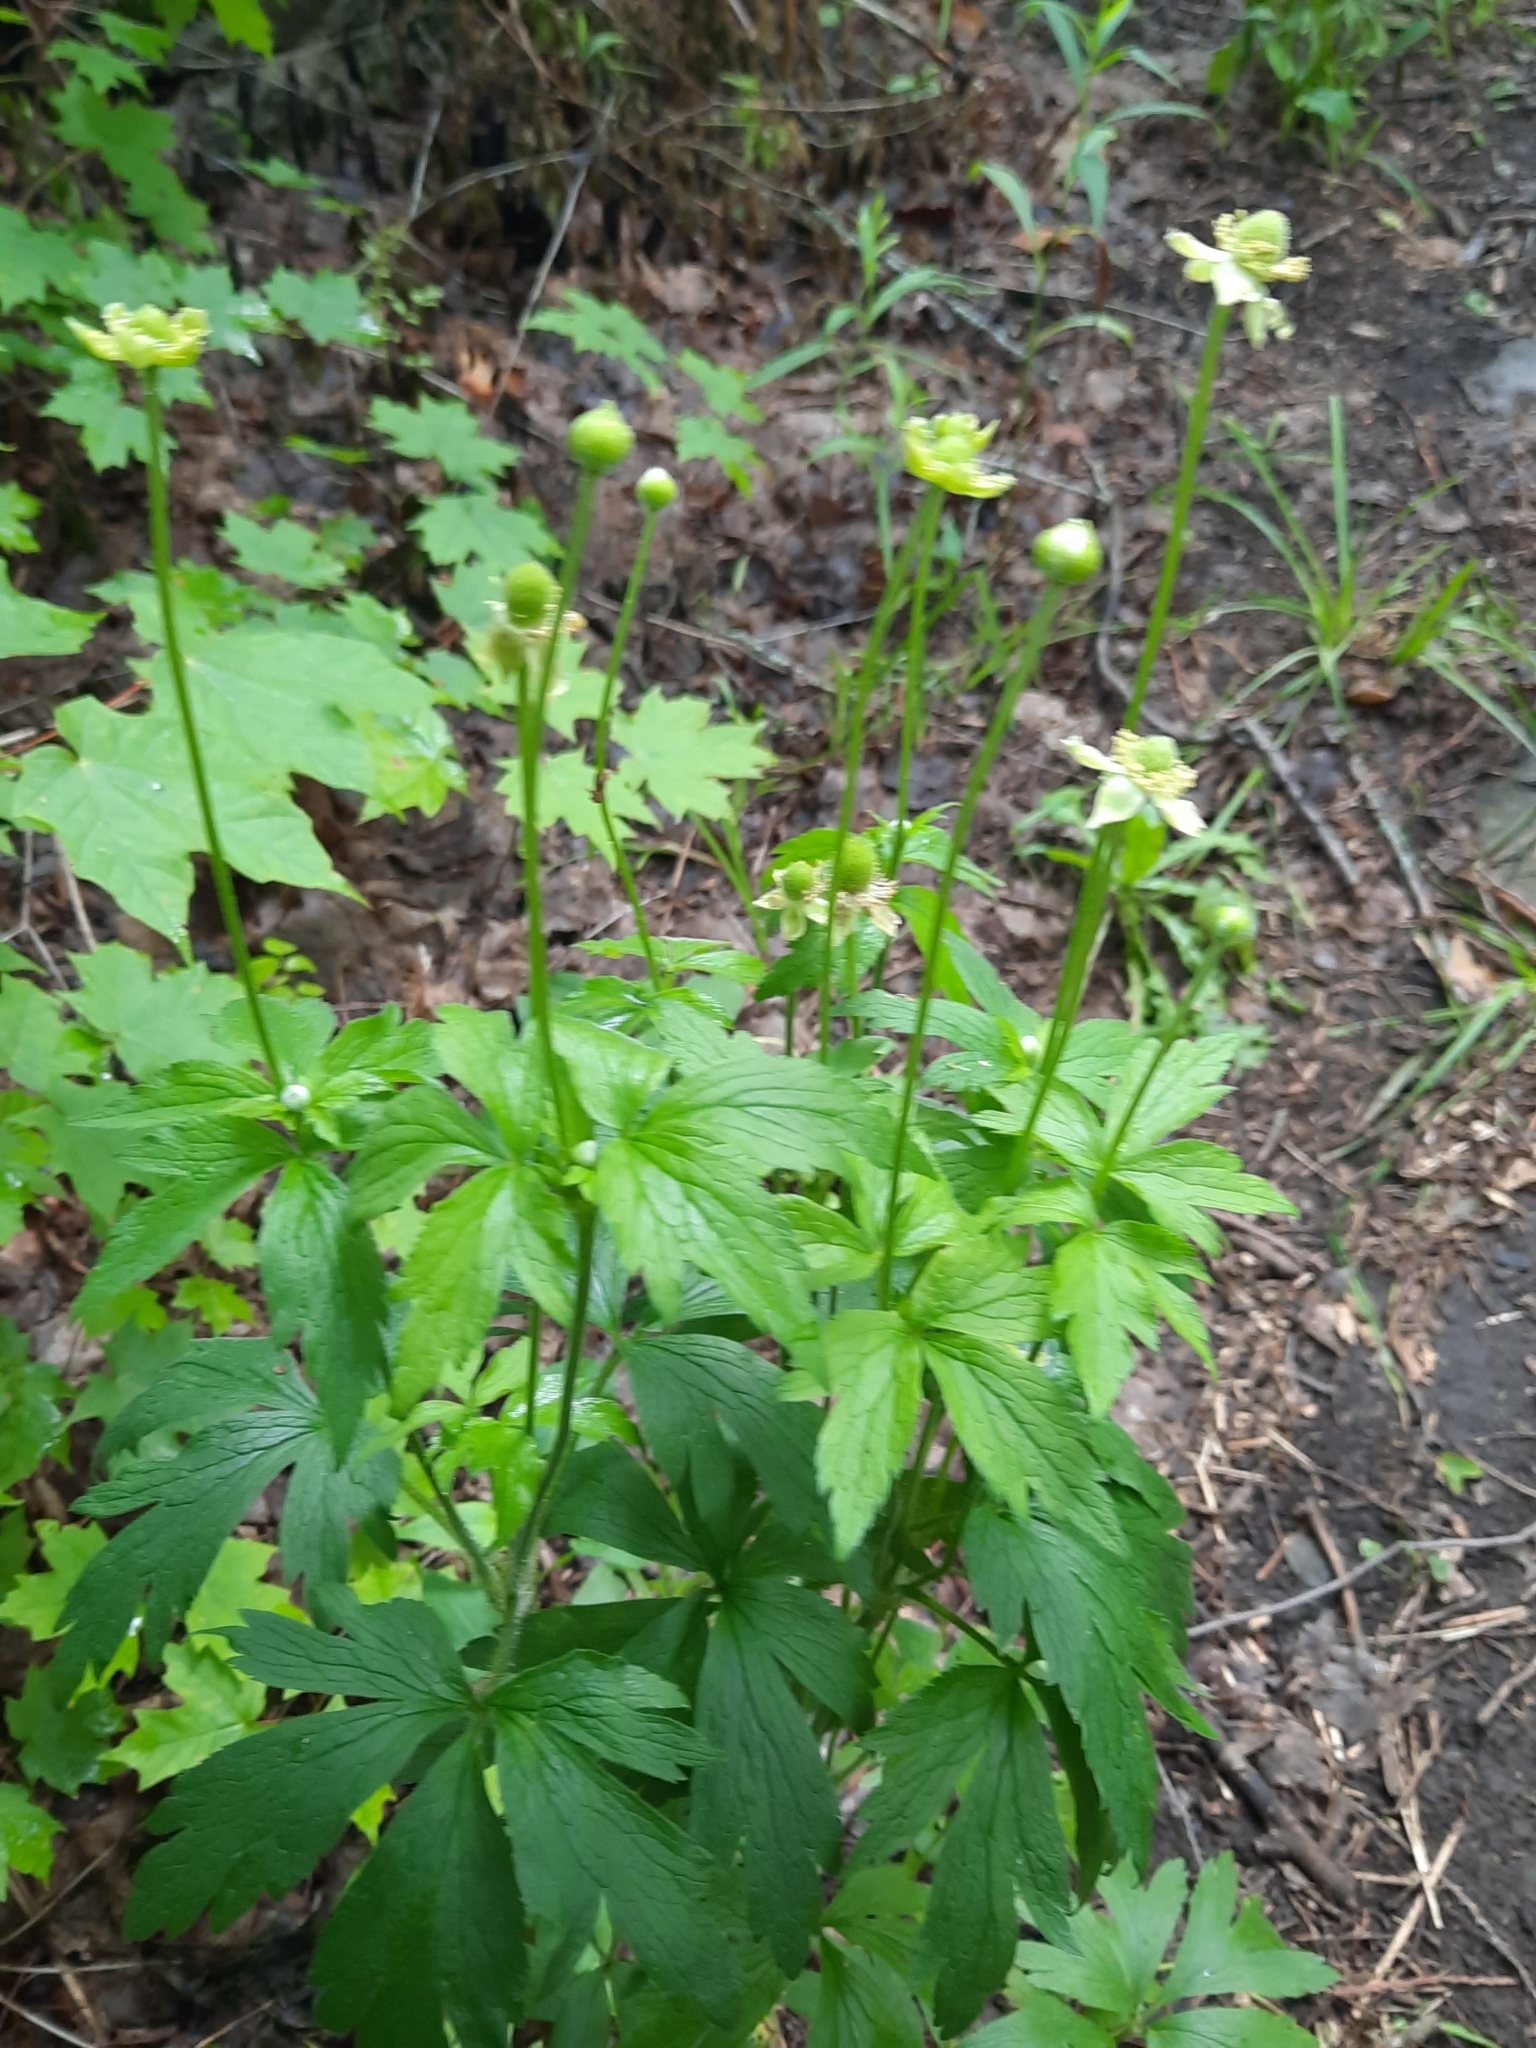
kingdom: Plantae
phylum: Tracheophyta
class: Magnoliopsida
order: Ranunculales
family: Ranunculaceae
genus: Anemone
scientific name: Anemone virginiana
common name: Tall anemone
